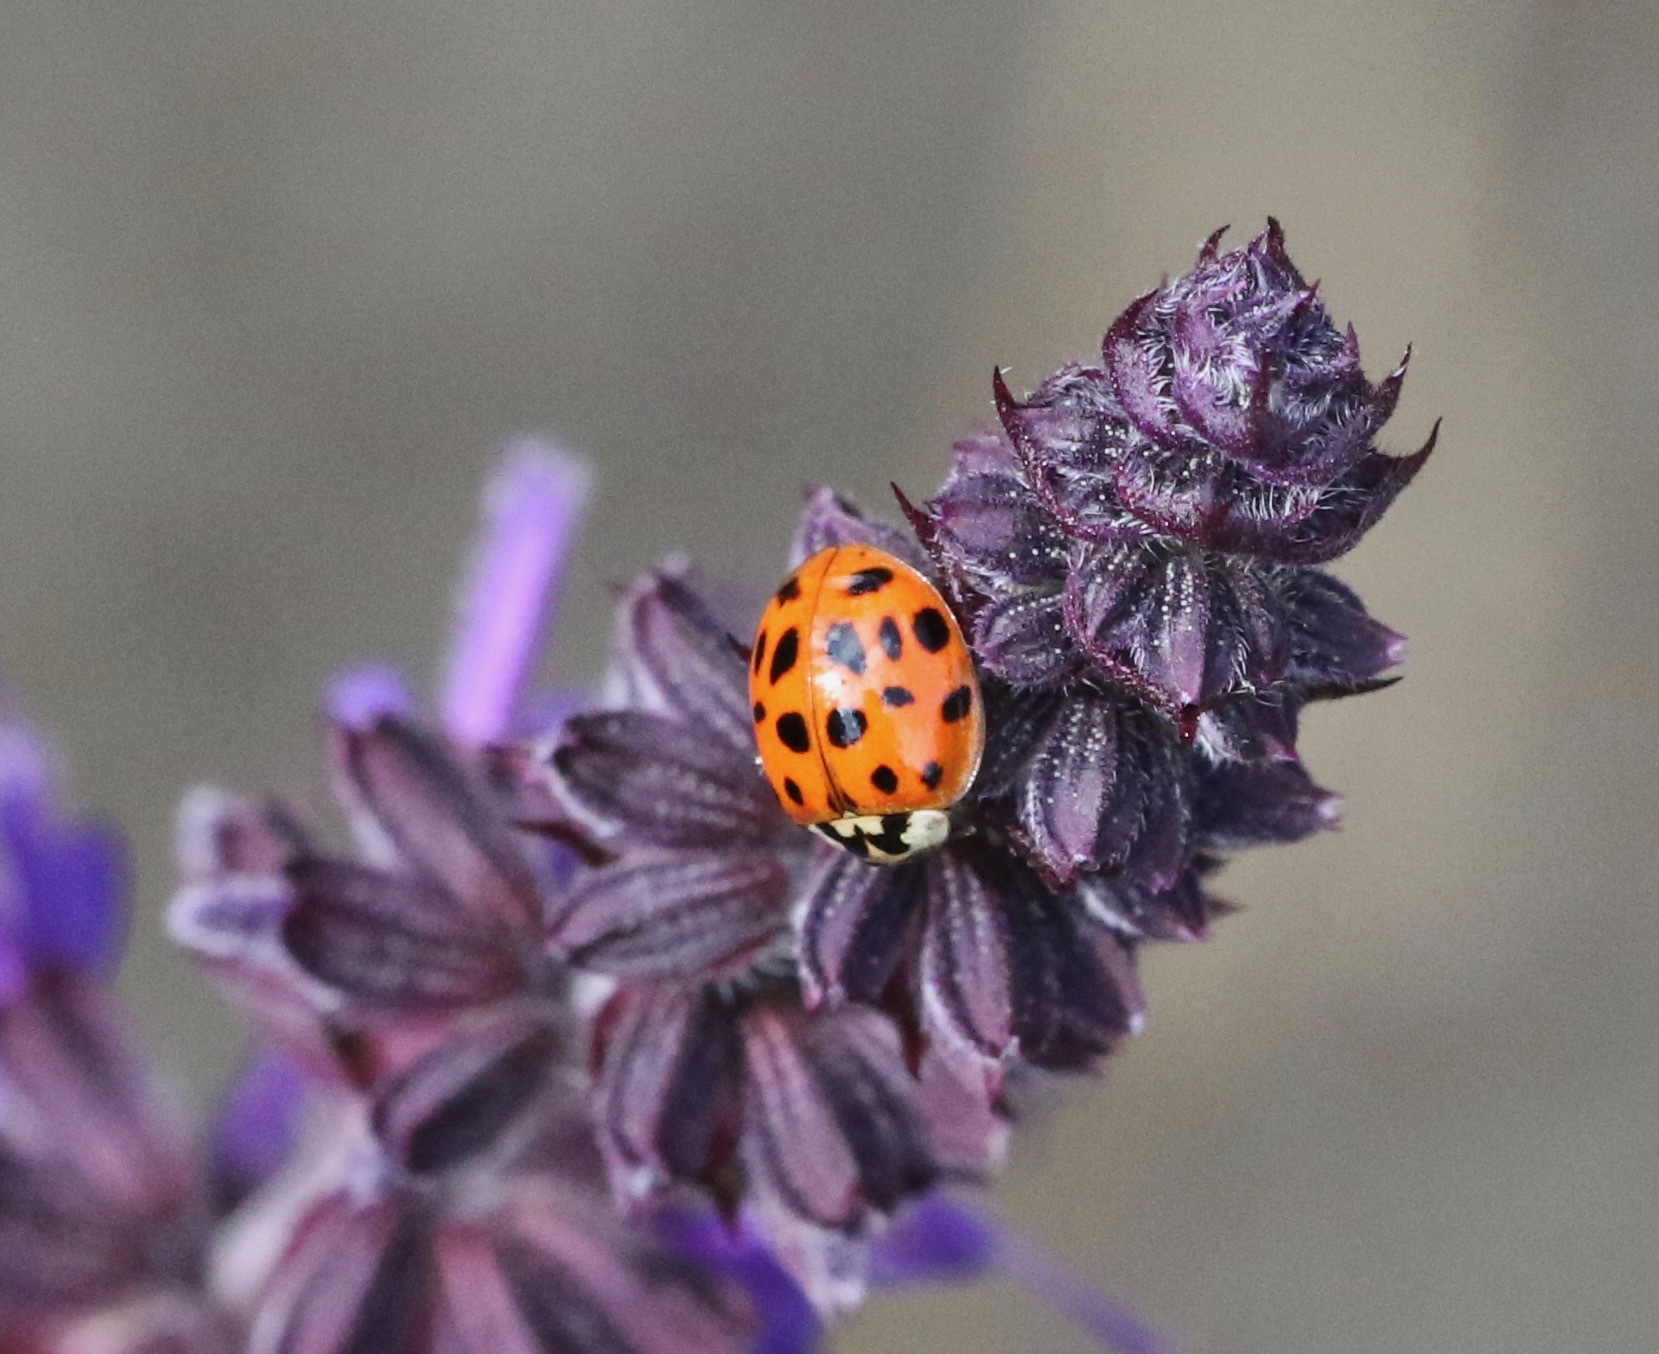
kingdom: Animalia
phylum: Arthropoda
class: Insecta
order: Coleoptera
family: Coccinellidae
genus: Harmonia
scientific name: Harmonia axyridis
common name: Harlequin ladybird
